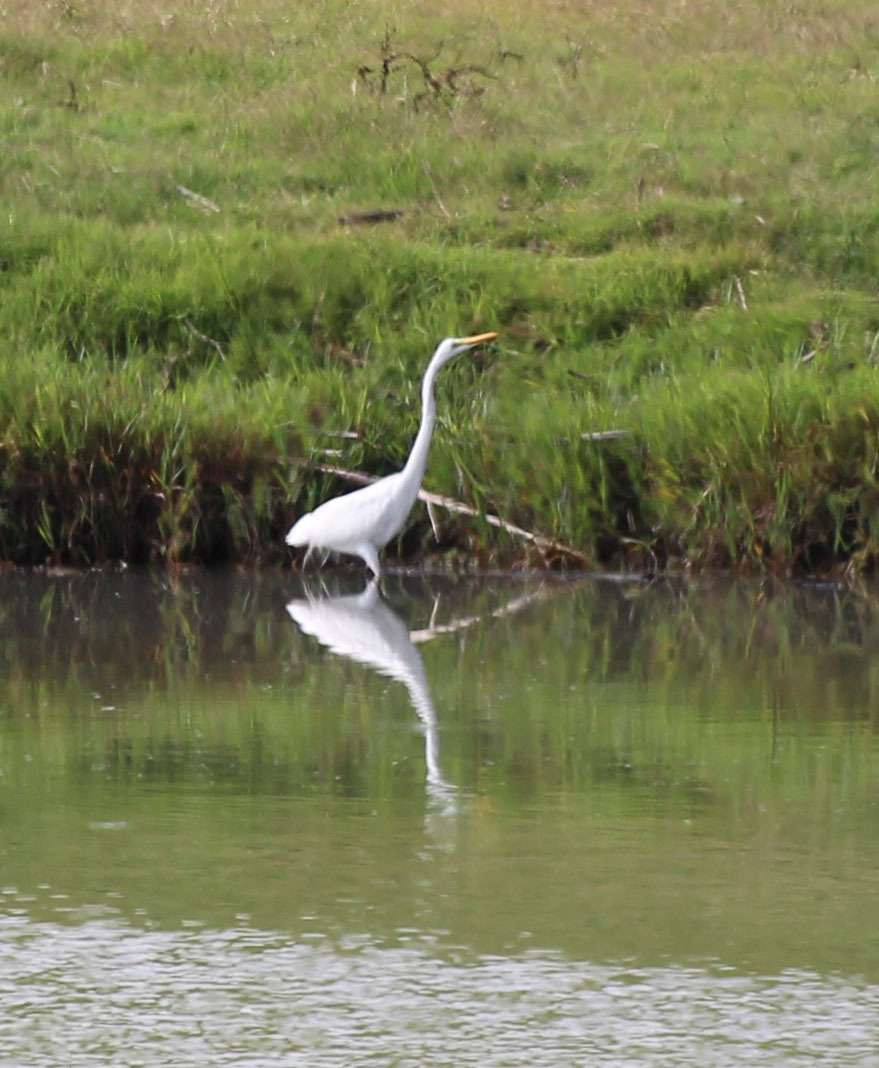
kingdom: Animalia
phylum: Chordata
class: Aves
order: Pelecaniformes
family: Ardeidae
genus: Ardea
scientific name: Ardea alba
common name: Great egret
